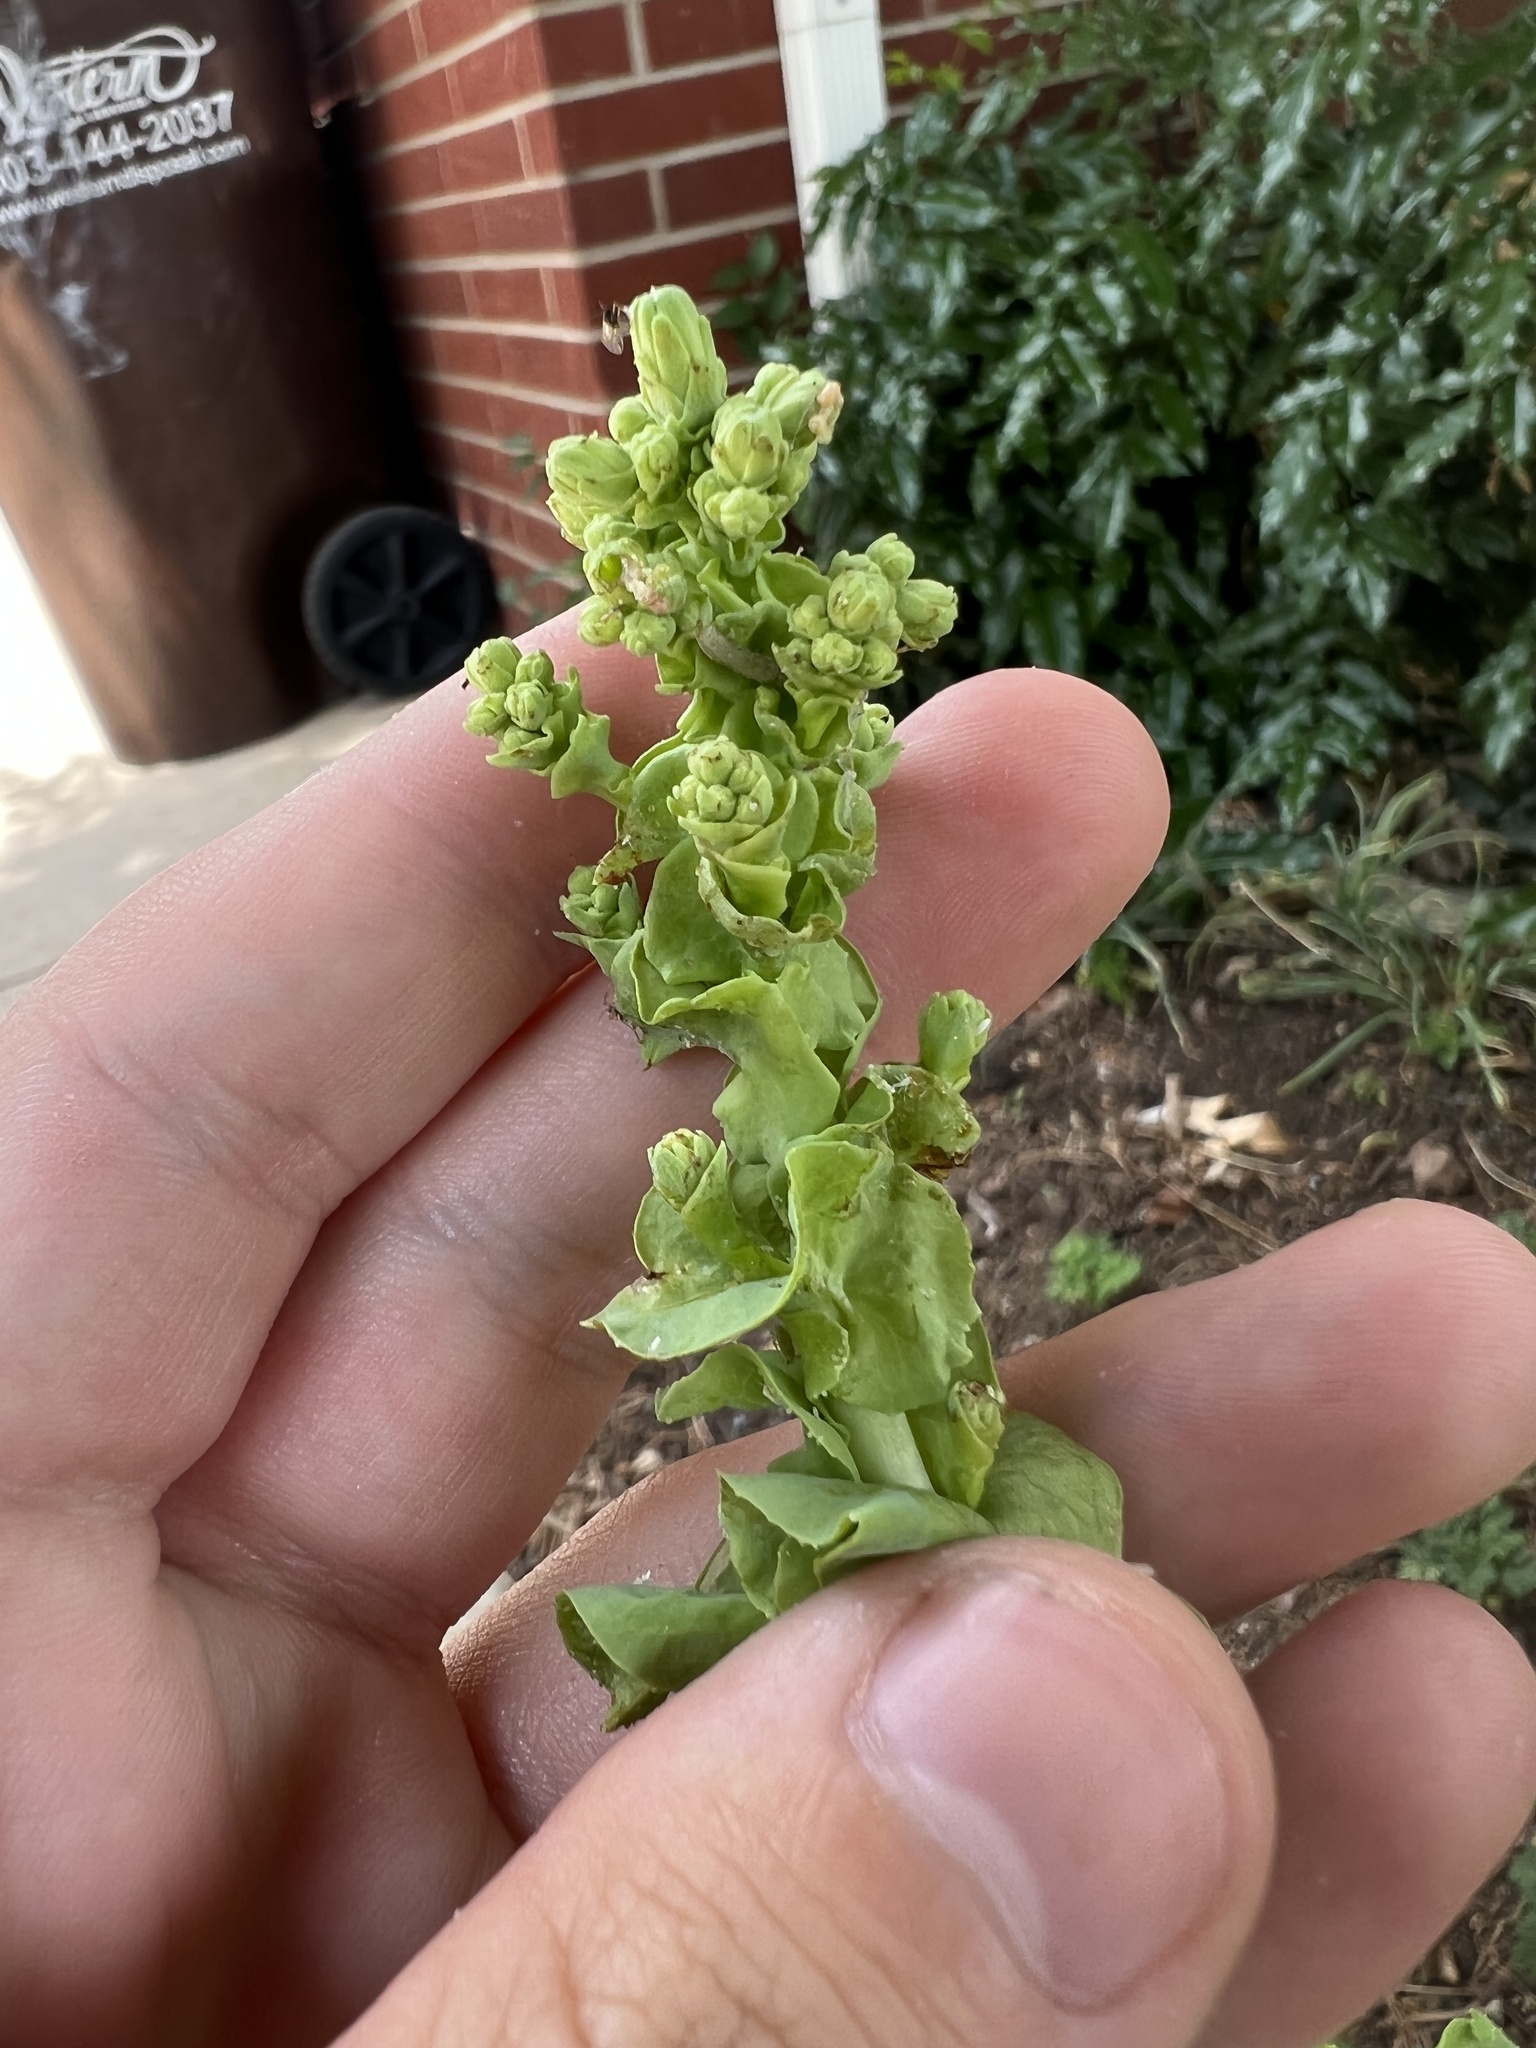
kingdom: Plantae
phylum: Tracheophyta
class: Magnoliopsida
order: Asterales
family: Asteraceae
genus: Lactuca
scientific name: Lactuca sativa
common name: Garden lettuce
